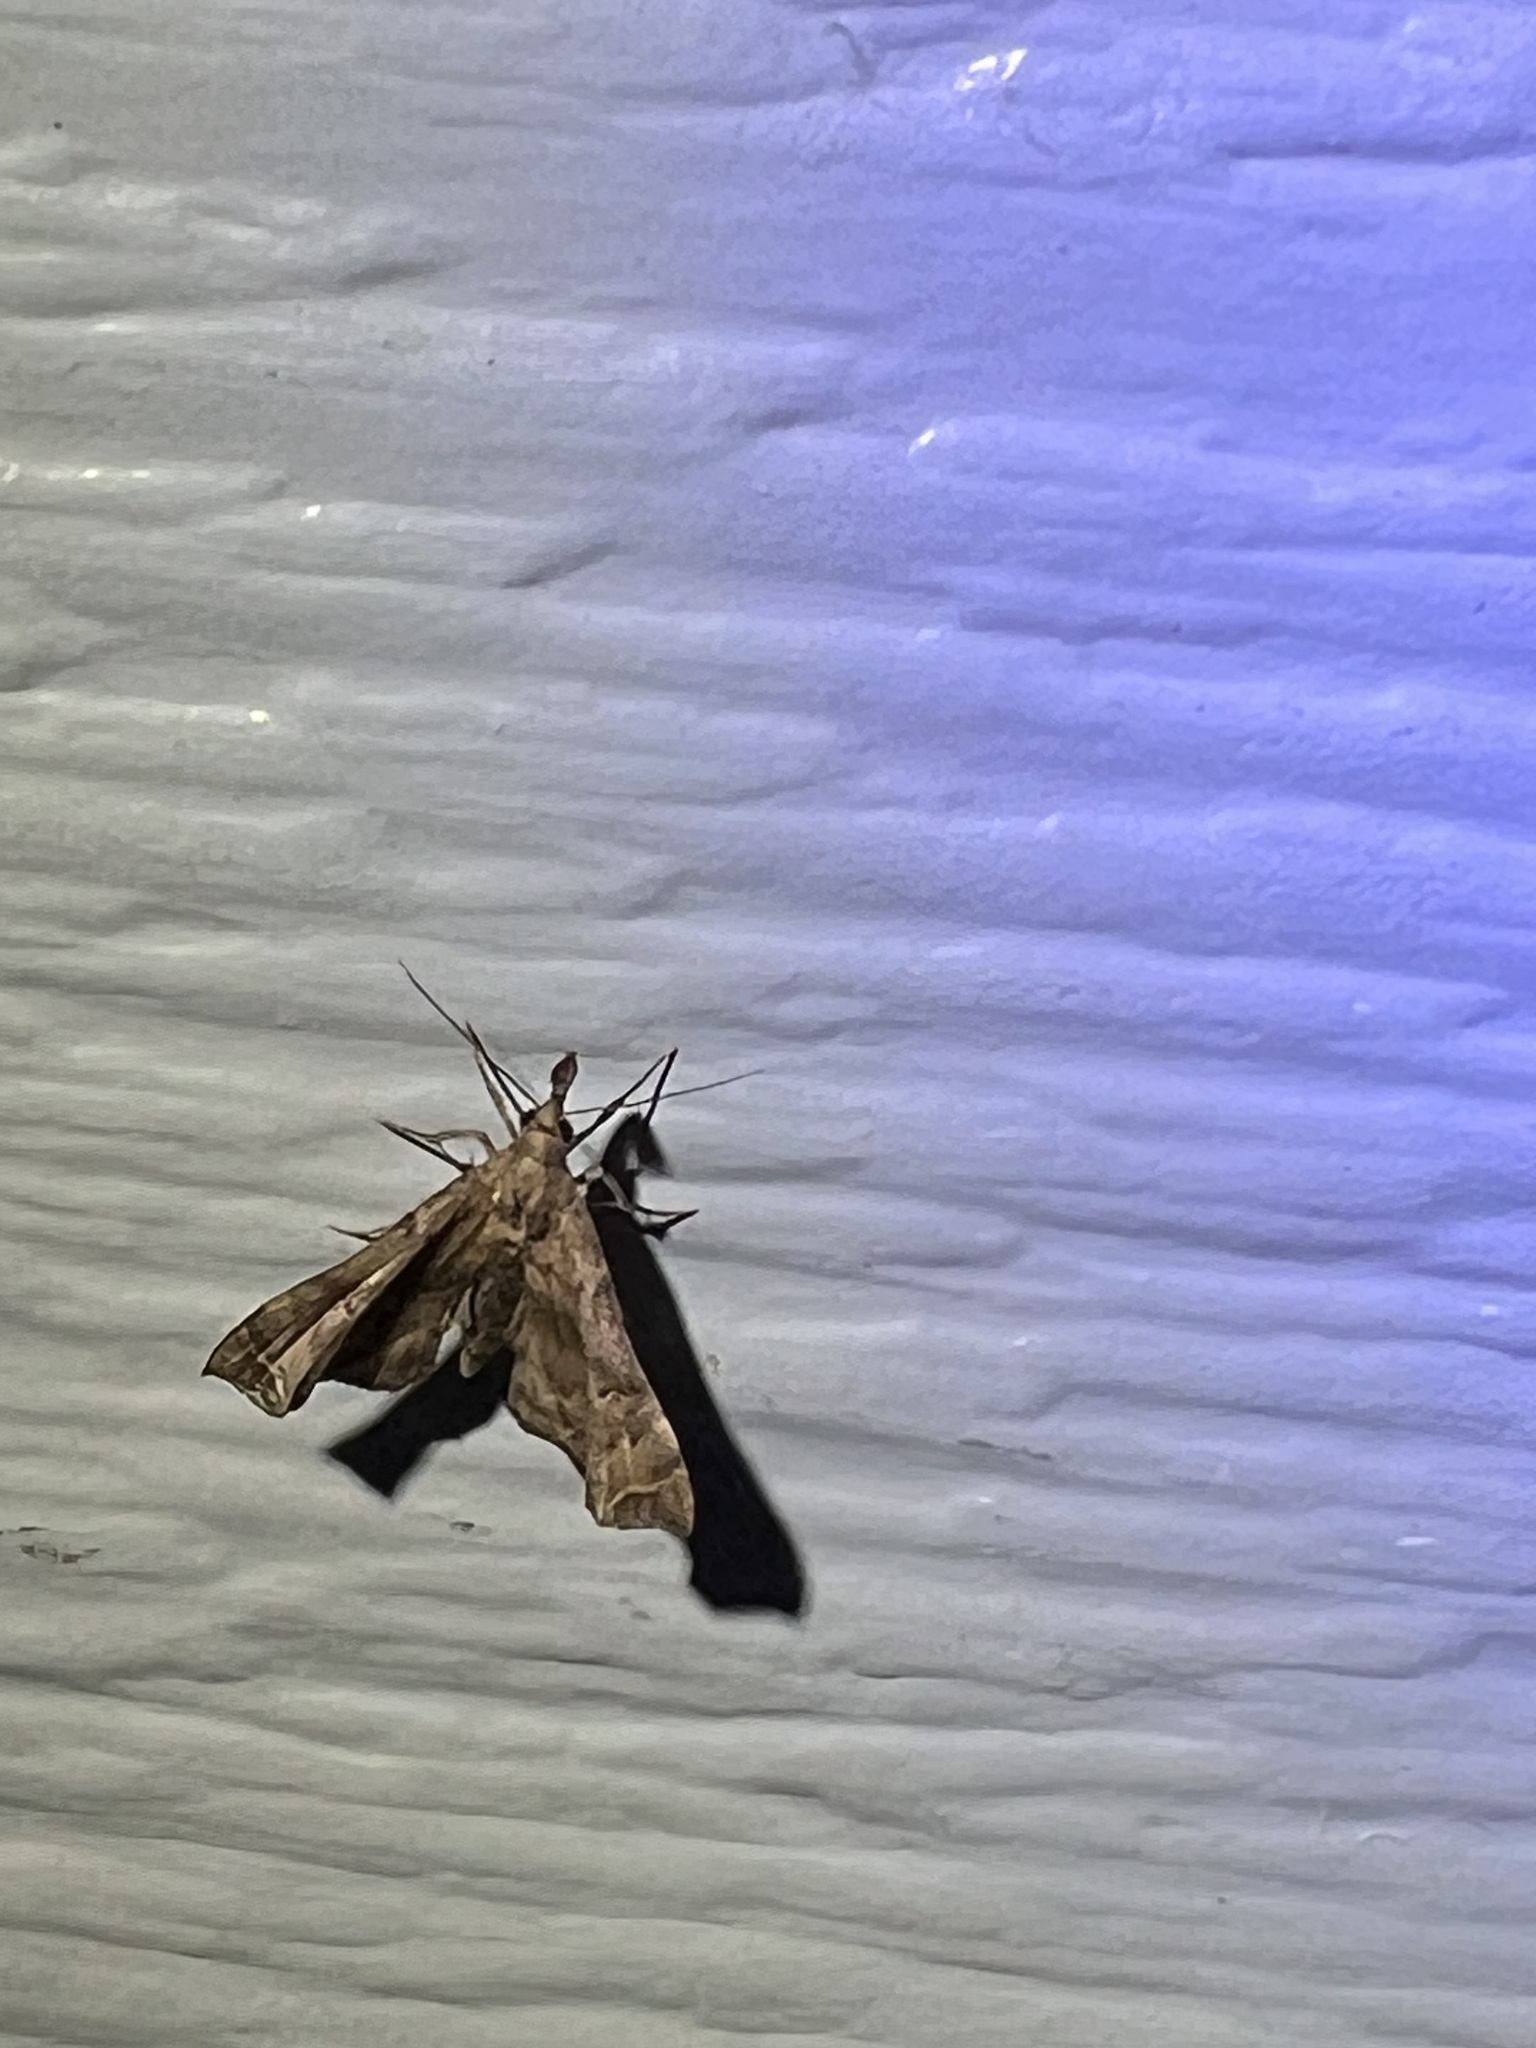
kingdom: Animalia
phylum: Arthropoda
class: Insecta
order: Lepidoptera
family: Erebidae
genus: Palthis
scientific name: Palthis asopialis
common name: Faint-spotted palthis moth
